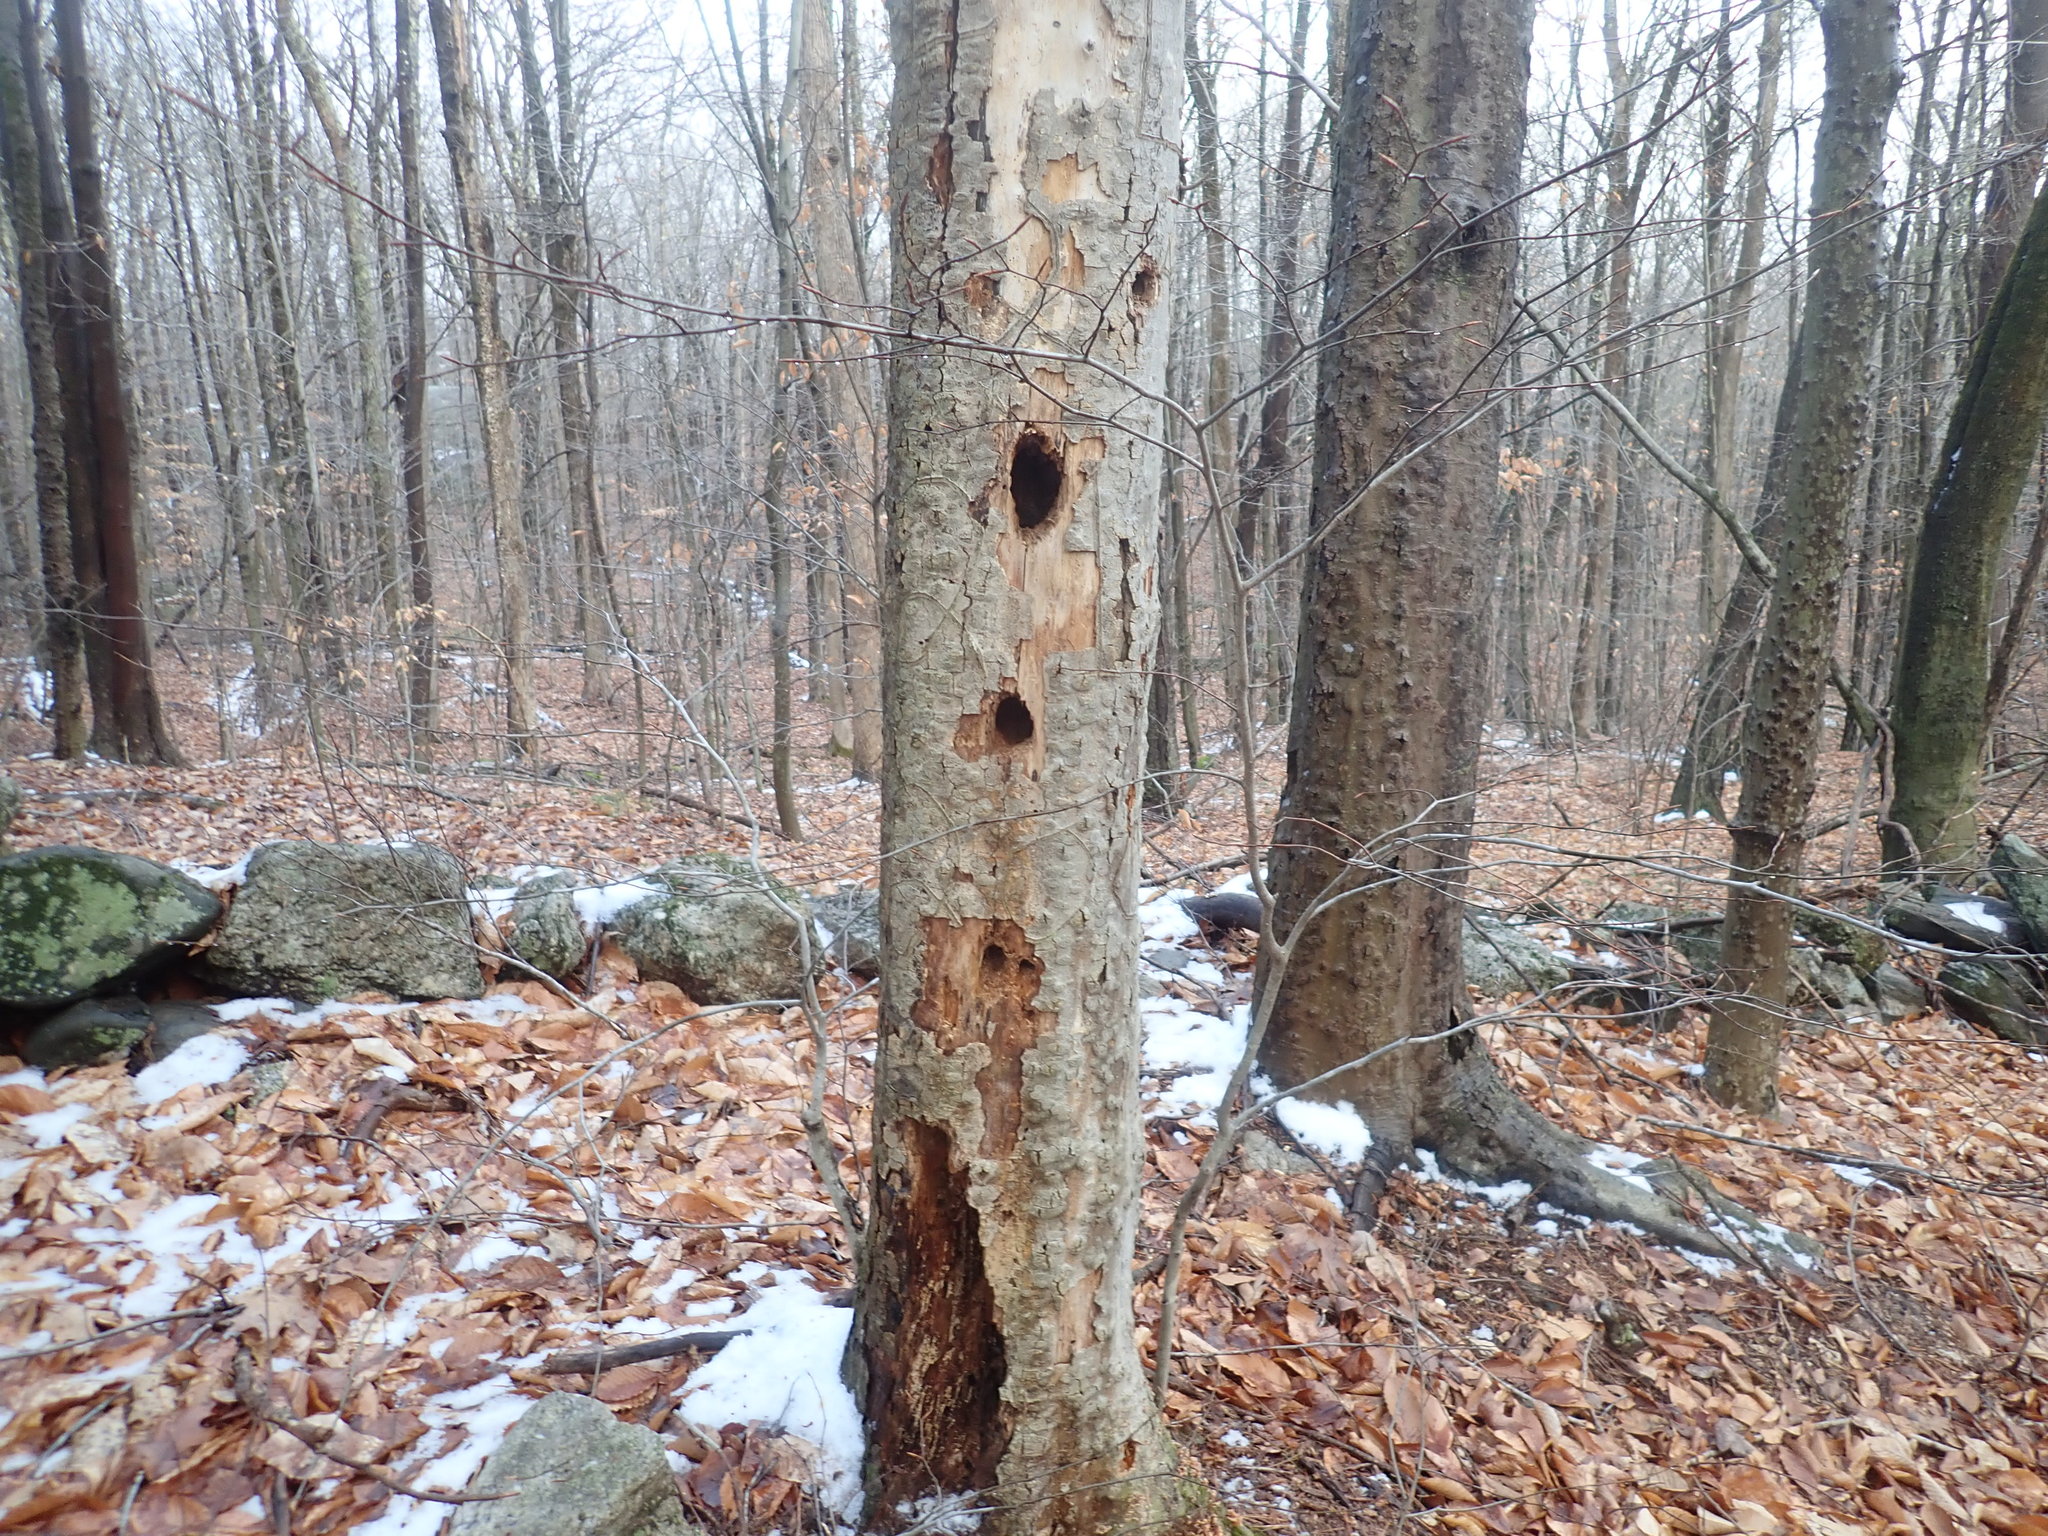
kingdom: Animalia
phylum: Chordata
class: Aves
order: Piciformes
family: Picidae
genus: Dryocopus
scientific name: Dryocopus pileatus
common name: Pileated woodpecker
